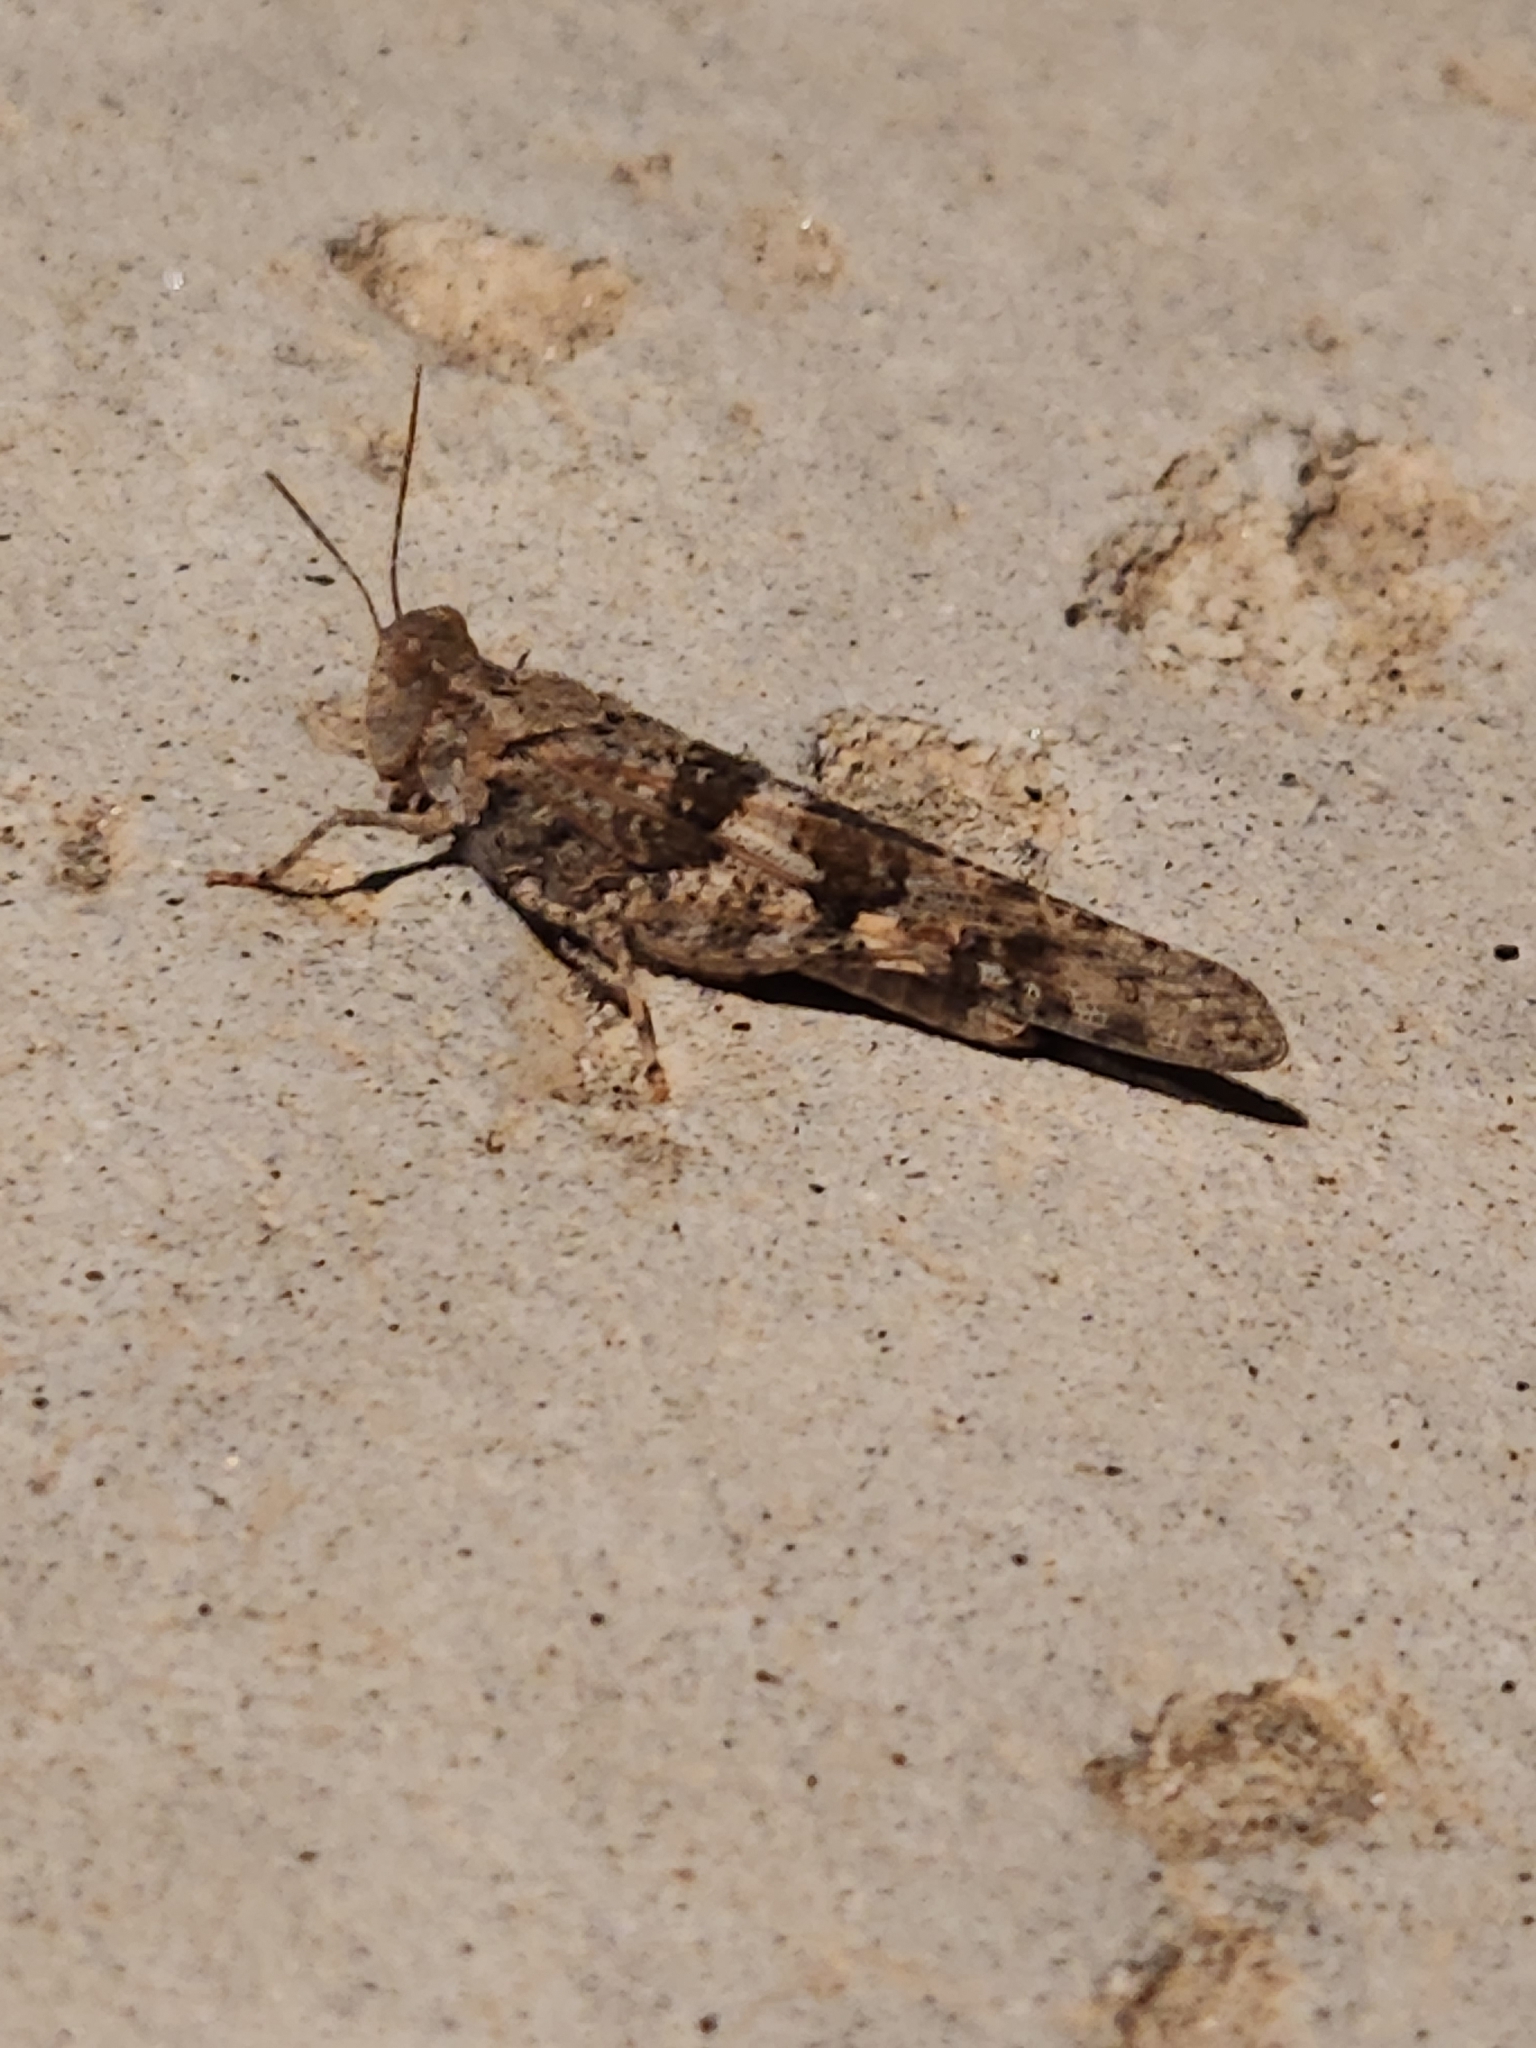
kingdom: Animalia
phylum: Arthropoda
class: Insecta
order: Orthoptera
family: Acrididae
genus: Trimerotropis
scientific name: Trimerotropis pallidipennis
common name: Pallid-winged grasshopper
